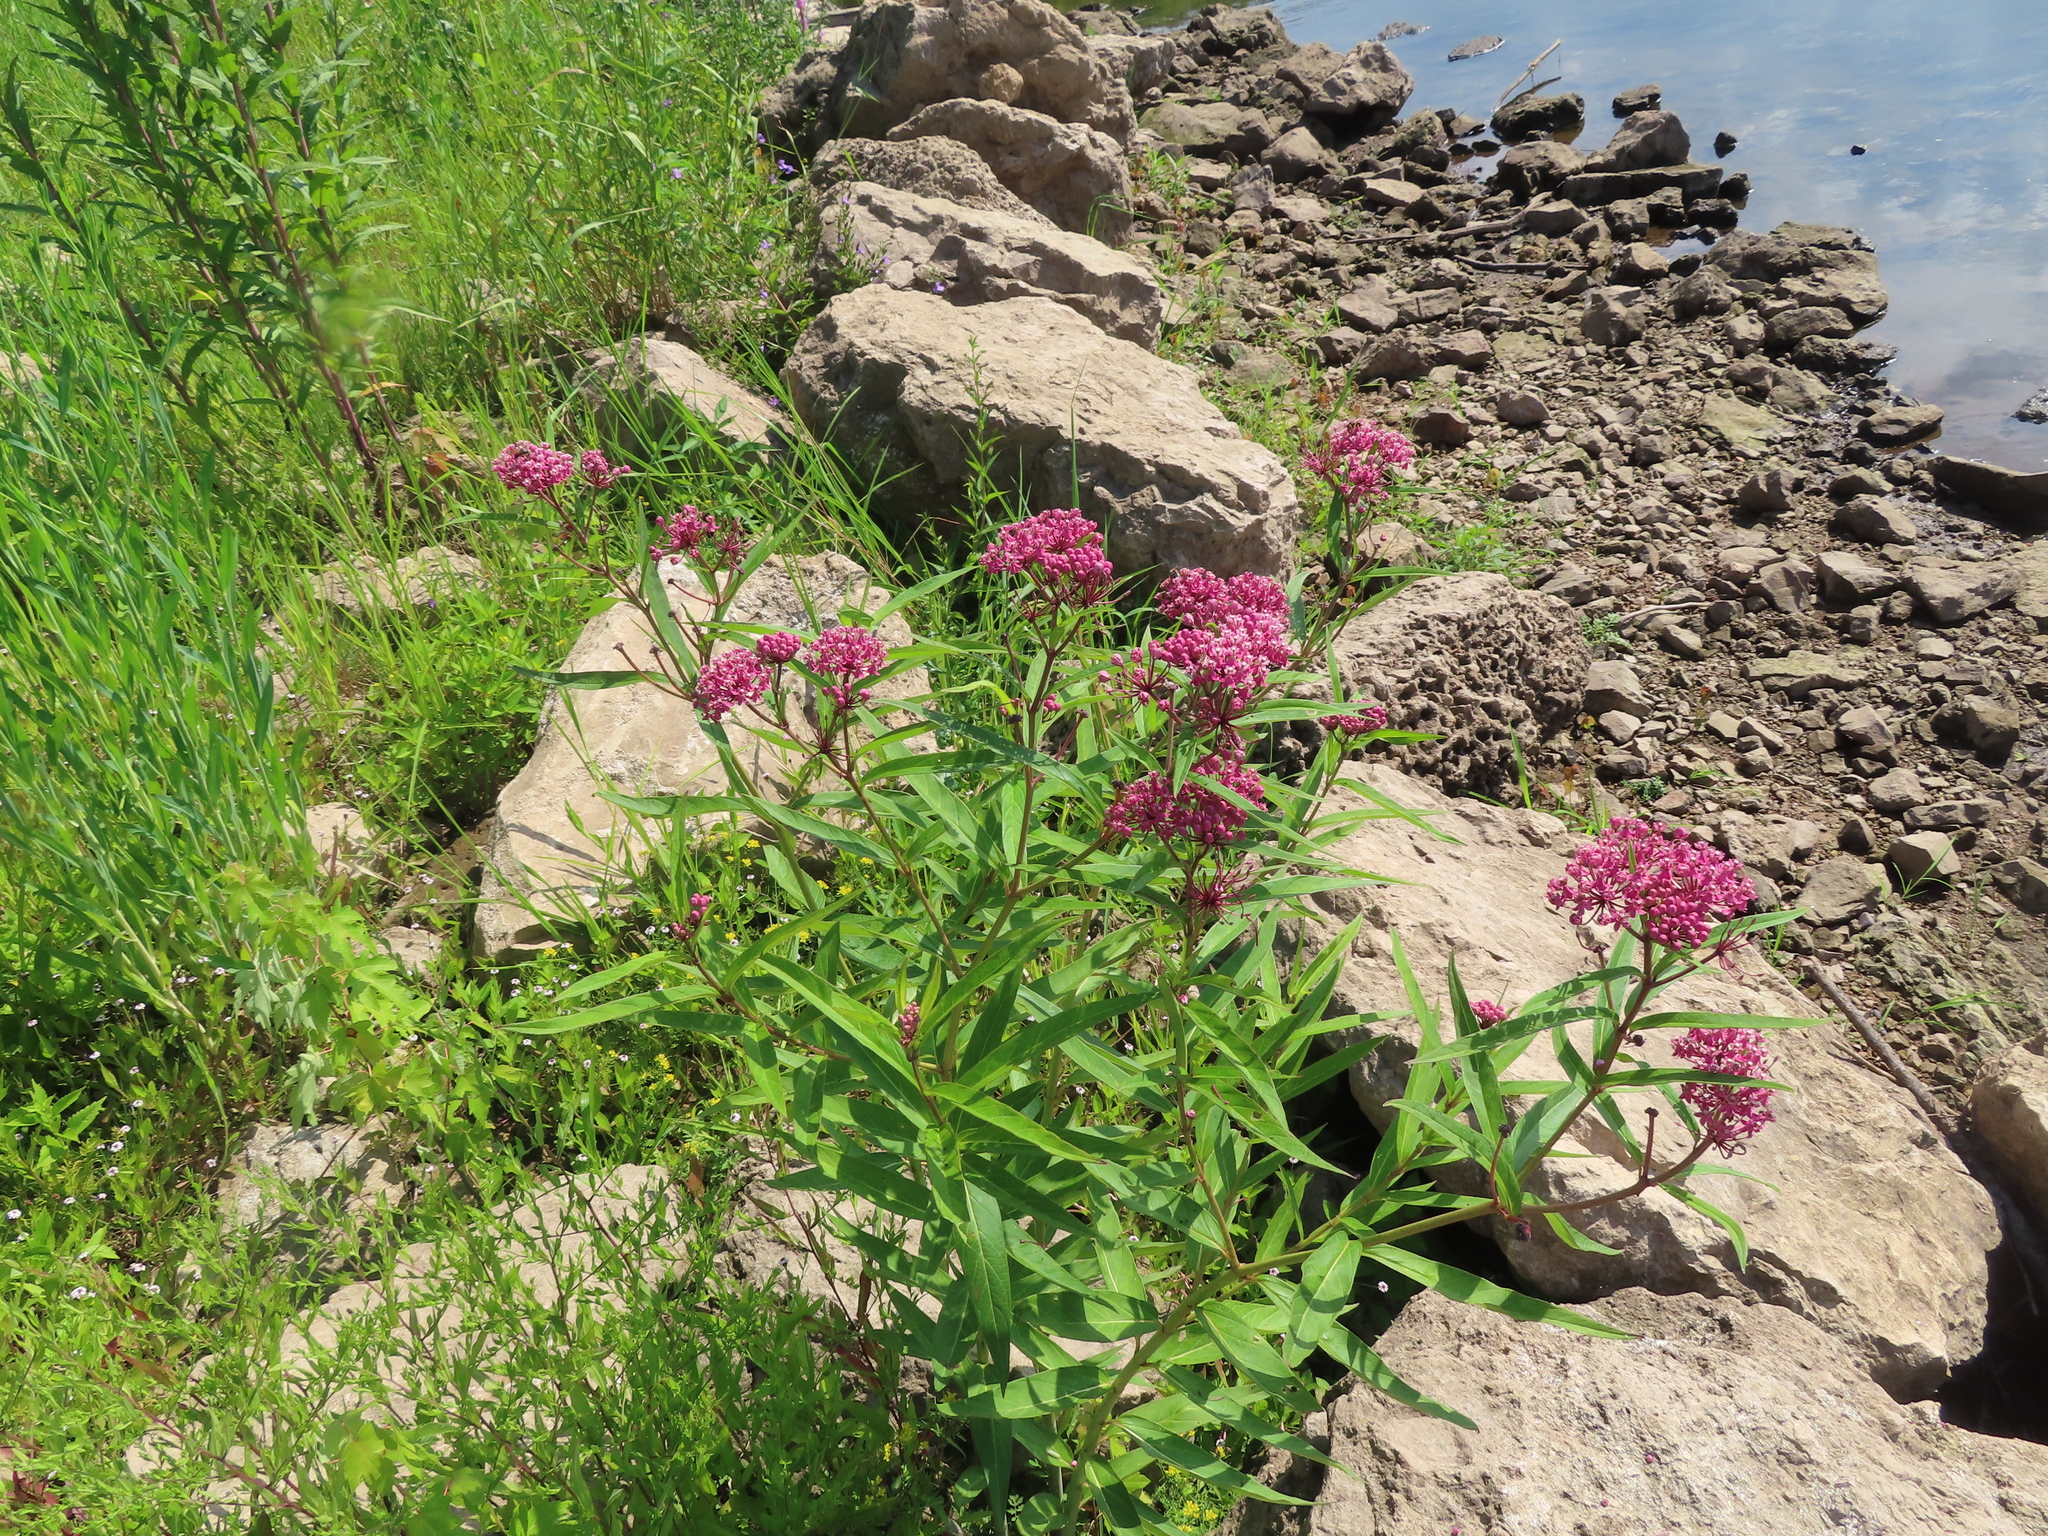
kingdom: Plantae
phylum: Tracheophyta
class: Magnoliopsida
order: Gentianales
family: Apocynaceae
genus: Asclepias
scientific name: Asclepias incarnata
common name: Swamp milkweed
